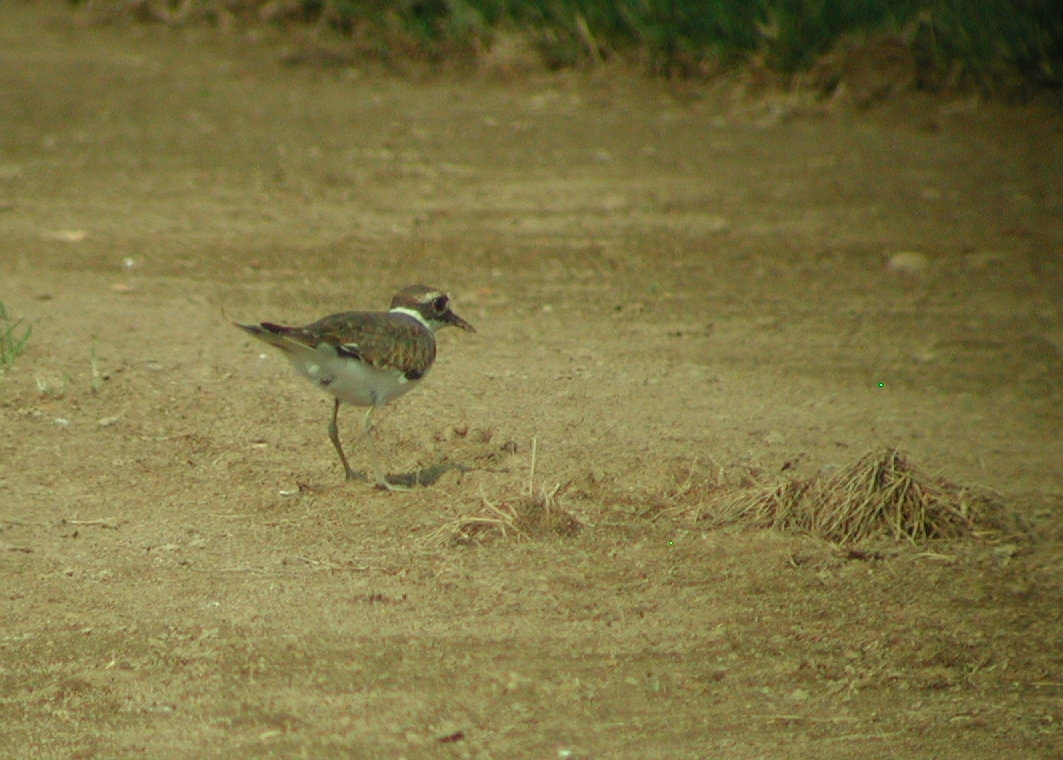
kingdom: Animalia
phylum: Chordata
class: Aves
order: Charadriiformes
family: Charadriidae
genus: Charadrius
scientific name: Charadrius vociferus
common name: Killdeer
